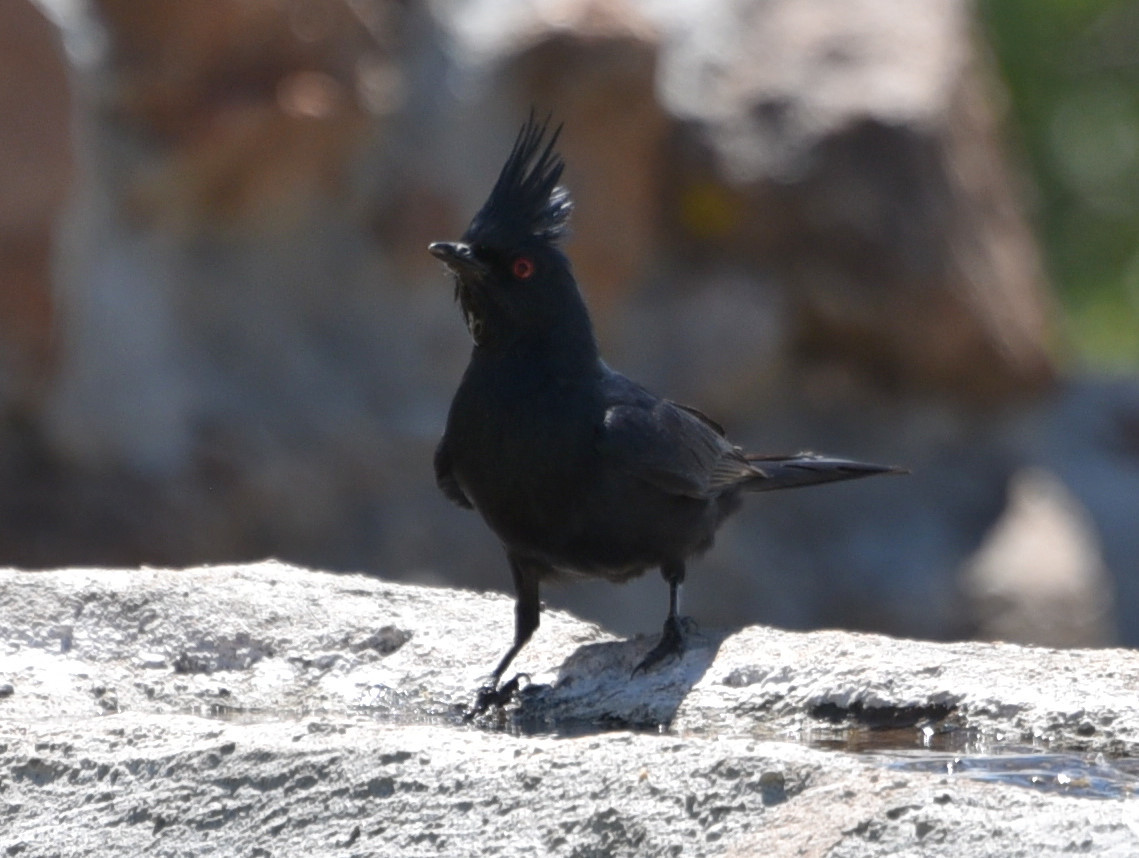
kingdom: Animalia
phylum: Chordata
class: Aves
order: Passeriformes
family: Ptilogonatidae
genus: Phainopepla
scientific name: Phainopepla nitens
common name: Phainopepla
